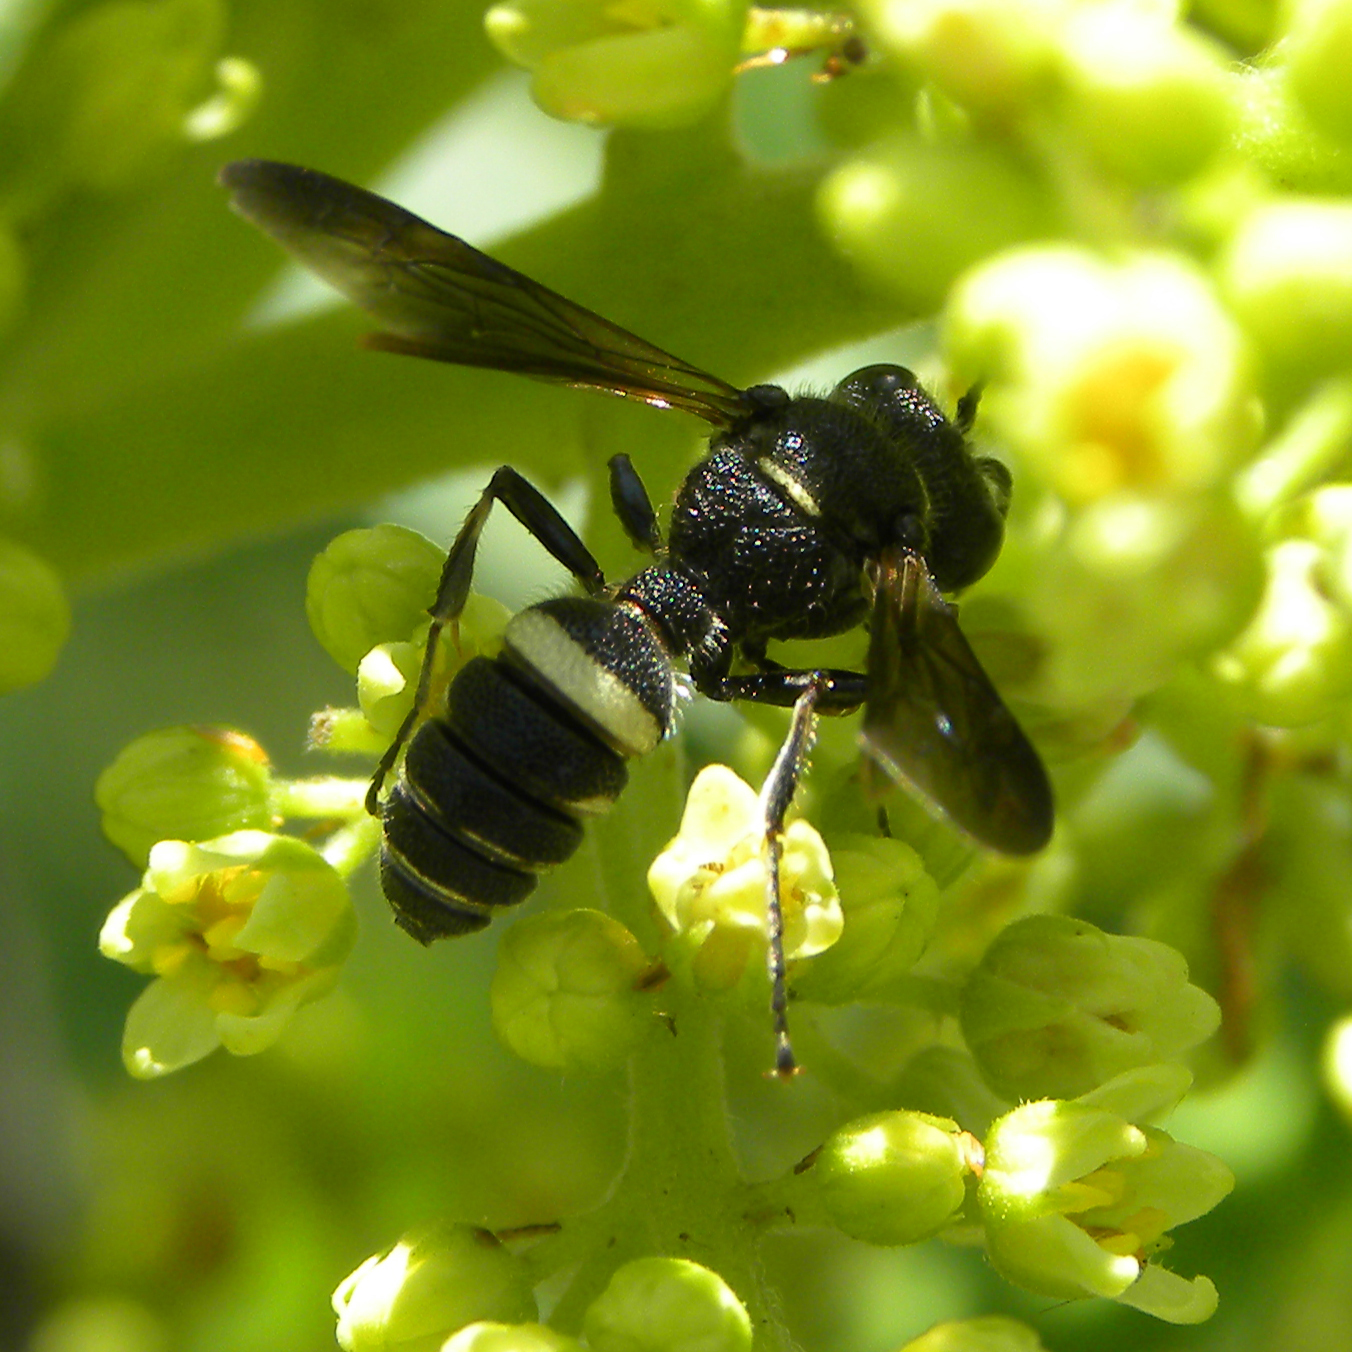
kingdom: Animalia
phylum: Arthropoda
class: Insecta
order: Hymenoptera
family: Crabronidae
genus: Cerceris
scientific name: Cerceris fumipennis
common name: Smokey-winged beetle bandit wasp
